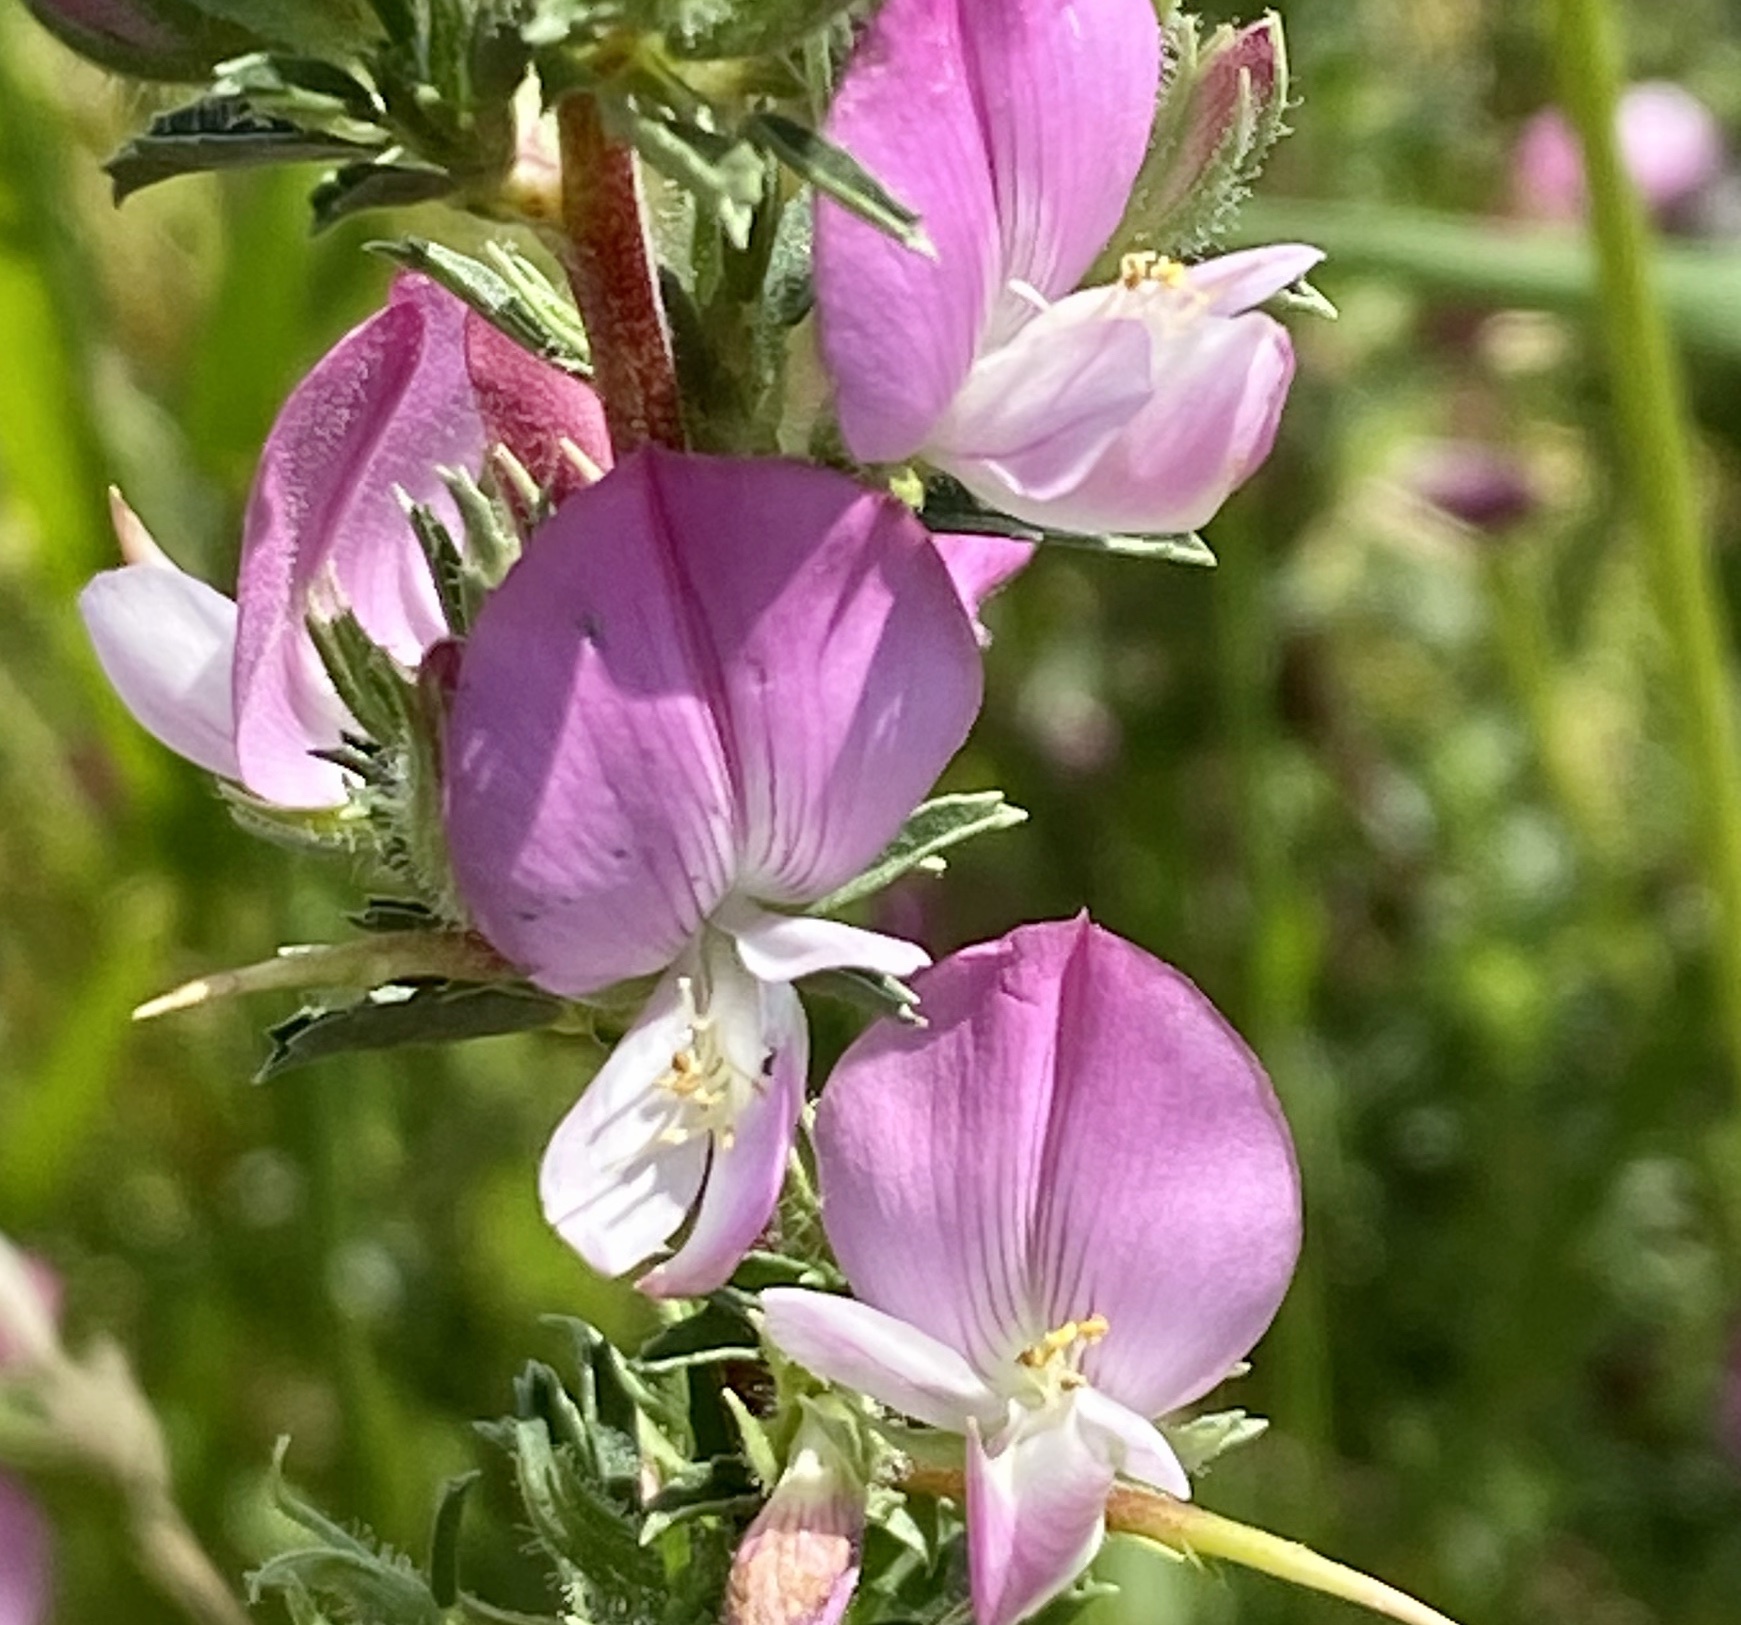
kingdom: Plantae
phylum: Tracheophyta
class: Magnoliopsida
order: Fabales
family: Fabaceae
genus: Ononis
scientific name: Ononis spinosa
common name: Spiny restharrow
